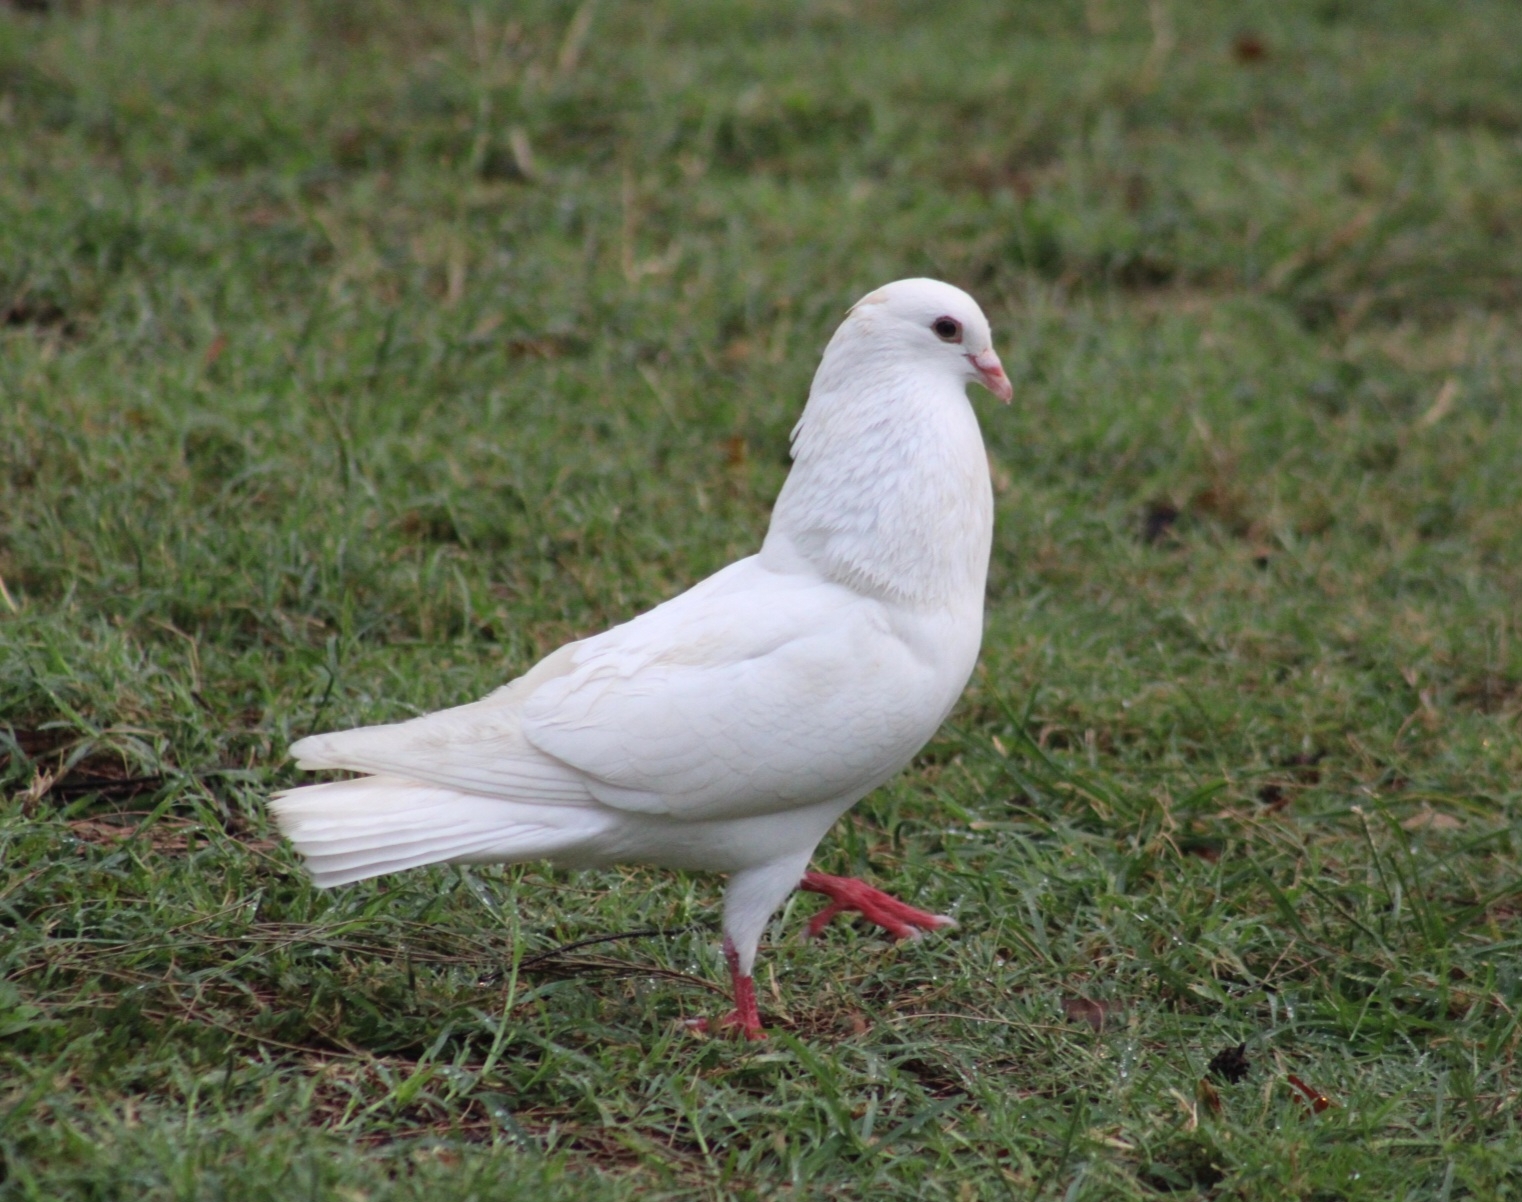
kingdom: Animalia
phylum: Chordata
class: Aves
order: Columbiformes
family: Columbidae
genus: Columba
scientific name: Columba livia
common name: Rock pigeon
